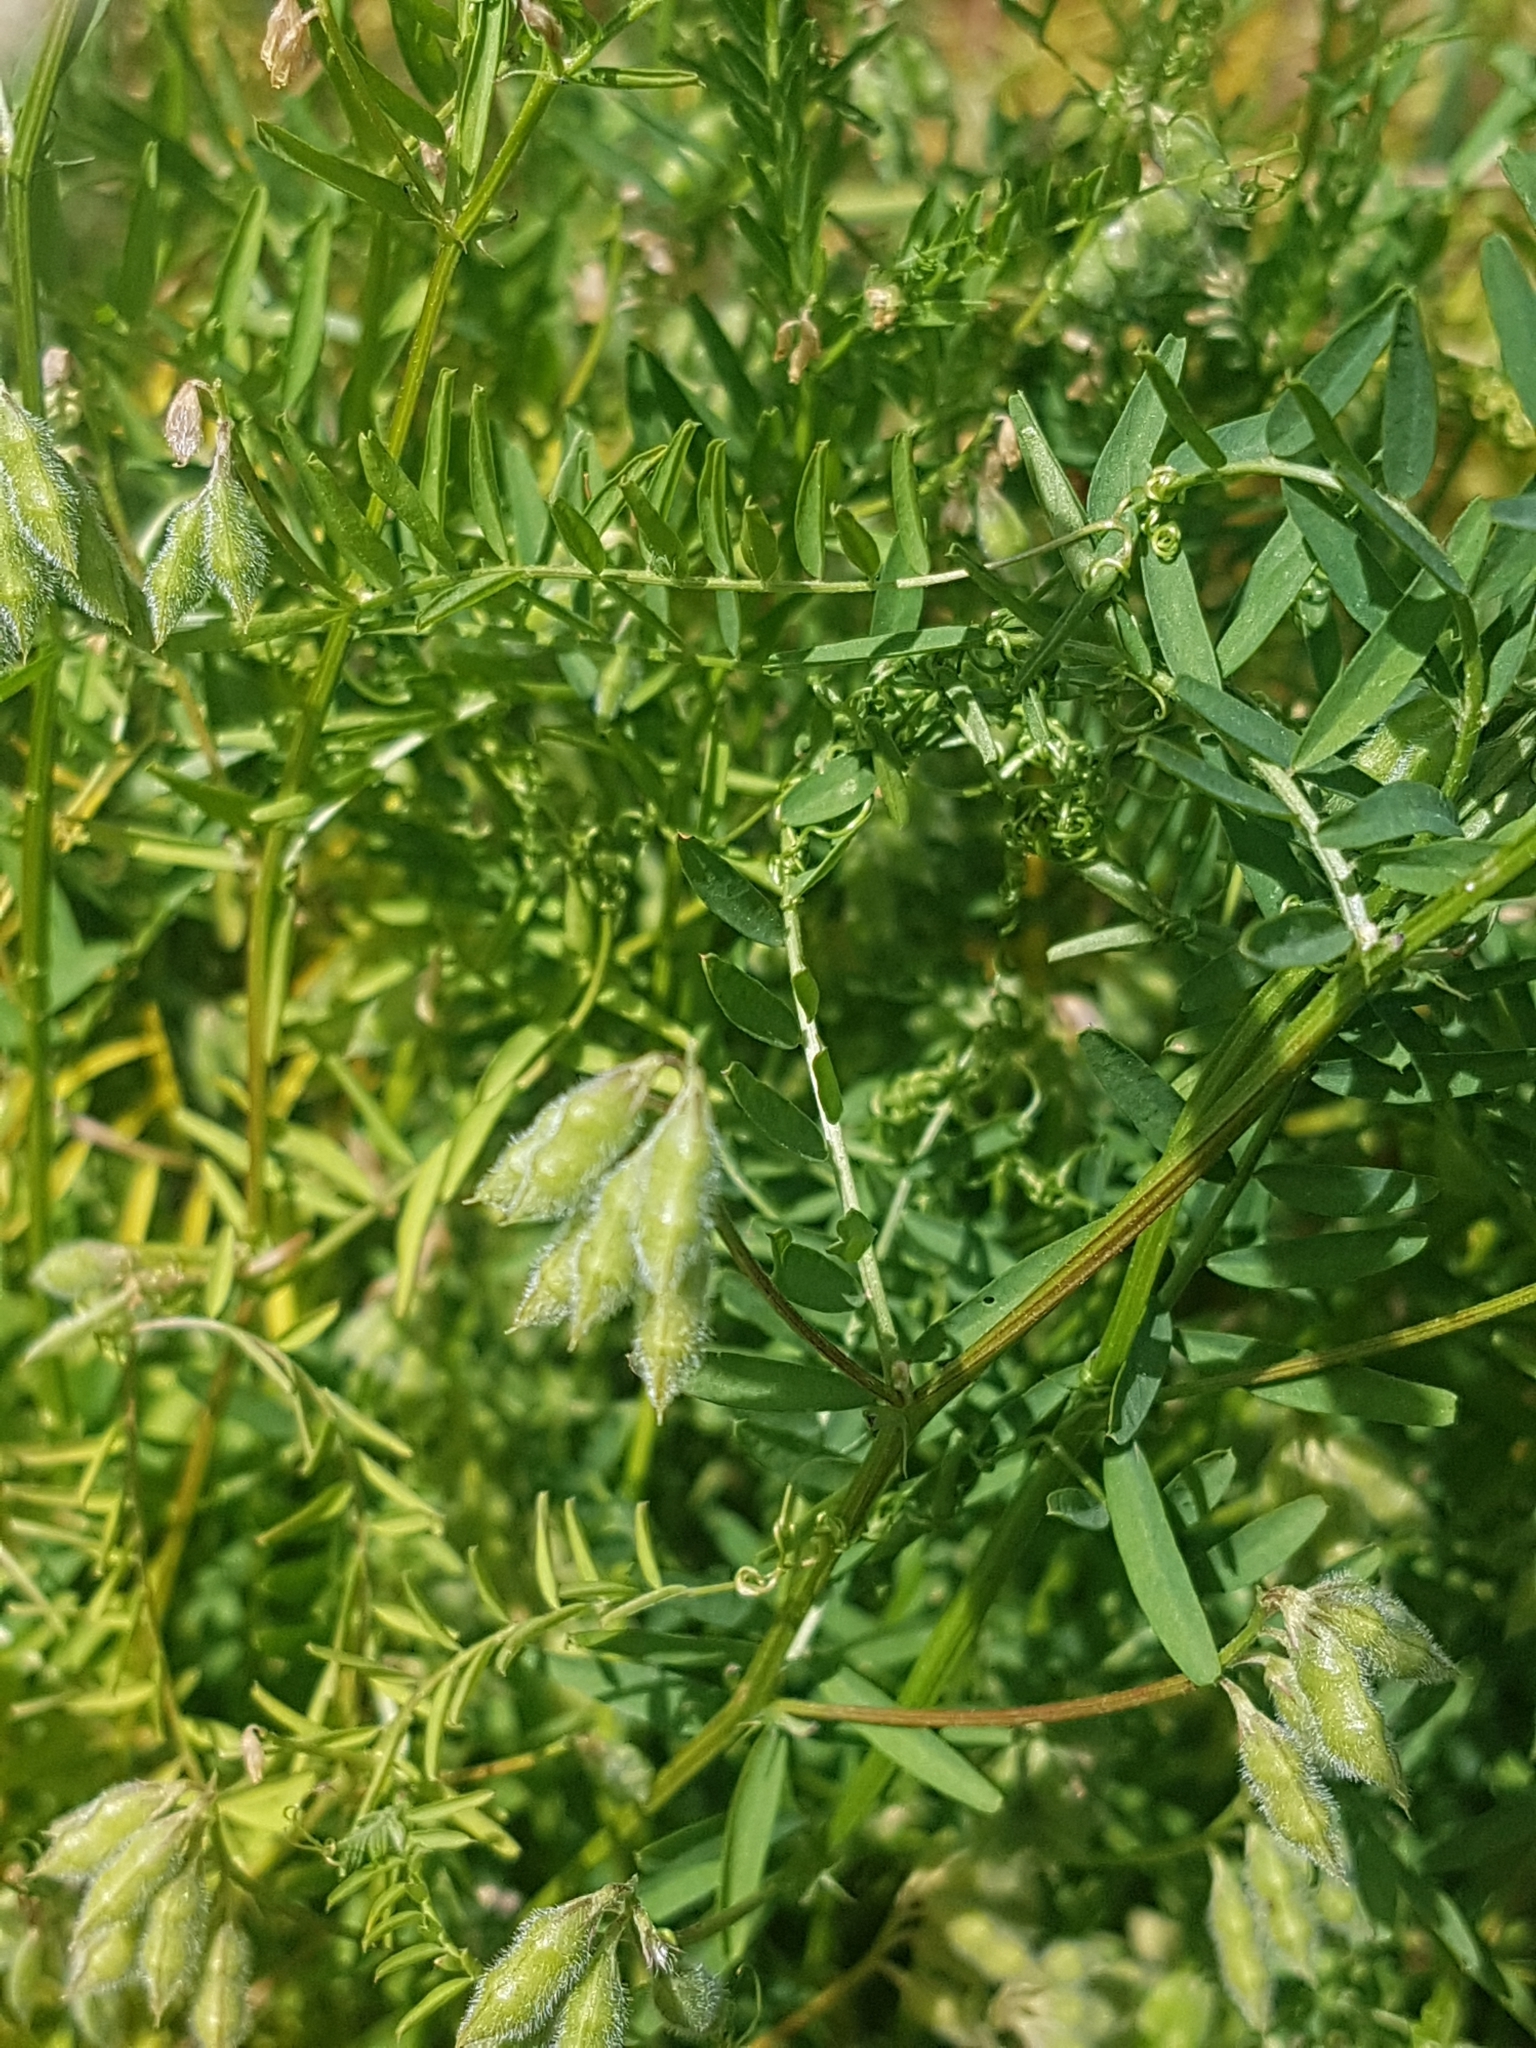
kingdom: Plantae
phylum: Tracheophyta
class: Magnoliopsida
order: Fabales
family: Fabaceae
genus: Vicia
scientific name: Vicia hirsuta
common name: Tiny vetch
